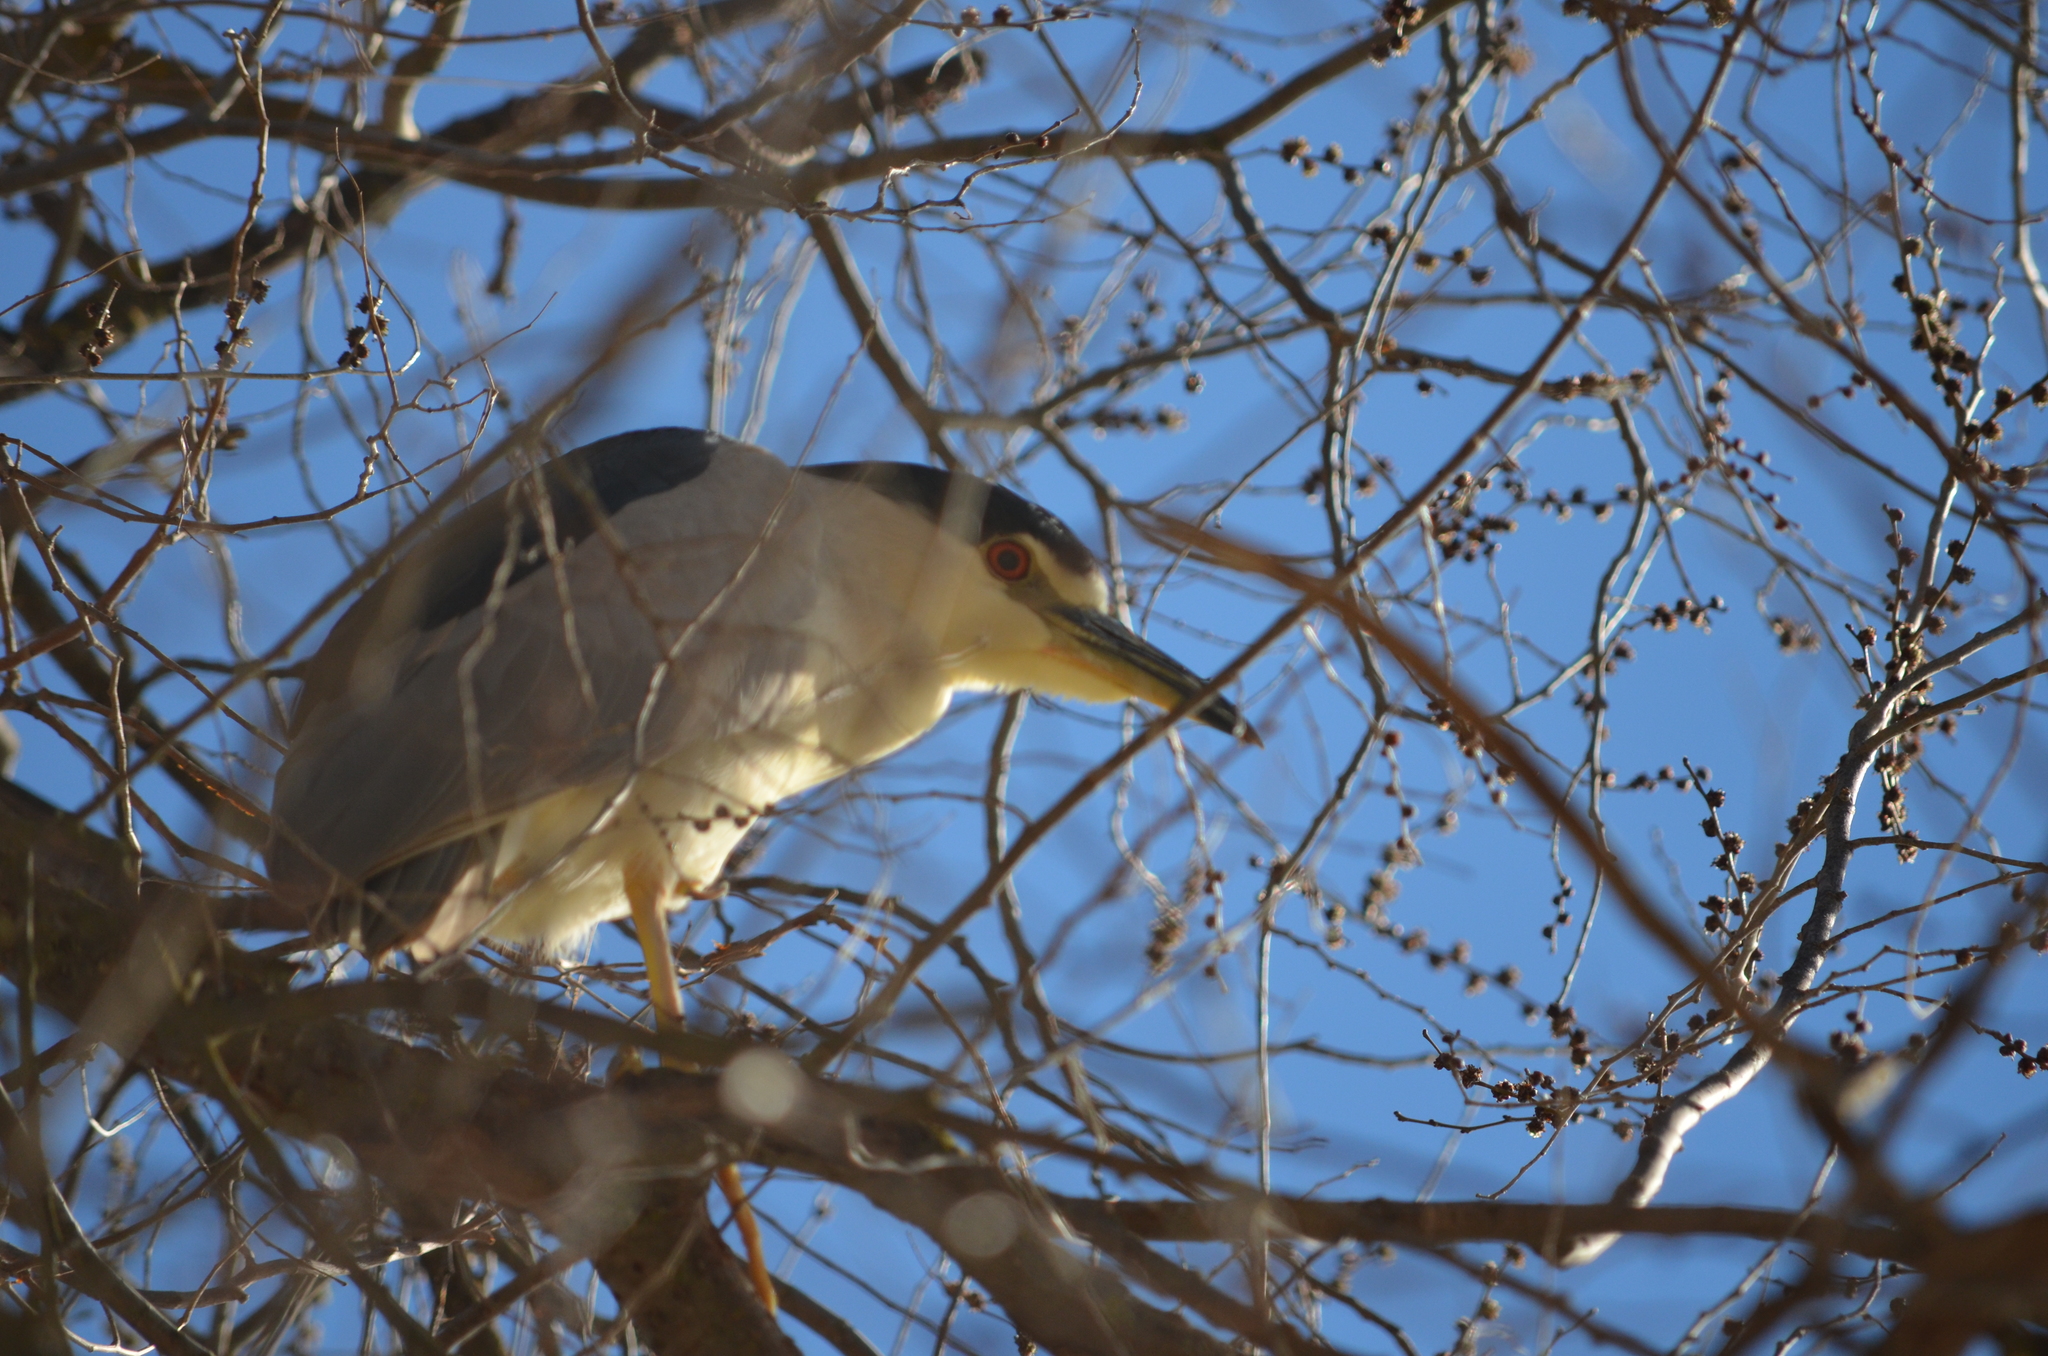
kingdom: Animalia
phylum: Chordata
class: Aves
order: Pelecaniformes
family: Ardeidae
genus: Nycticorax
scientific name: Nycticorax nycticorax
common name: Black-crowned night heron
